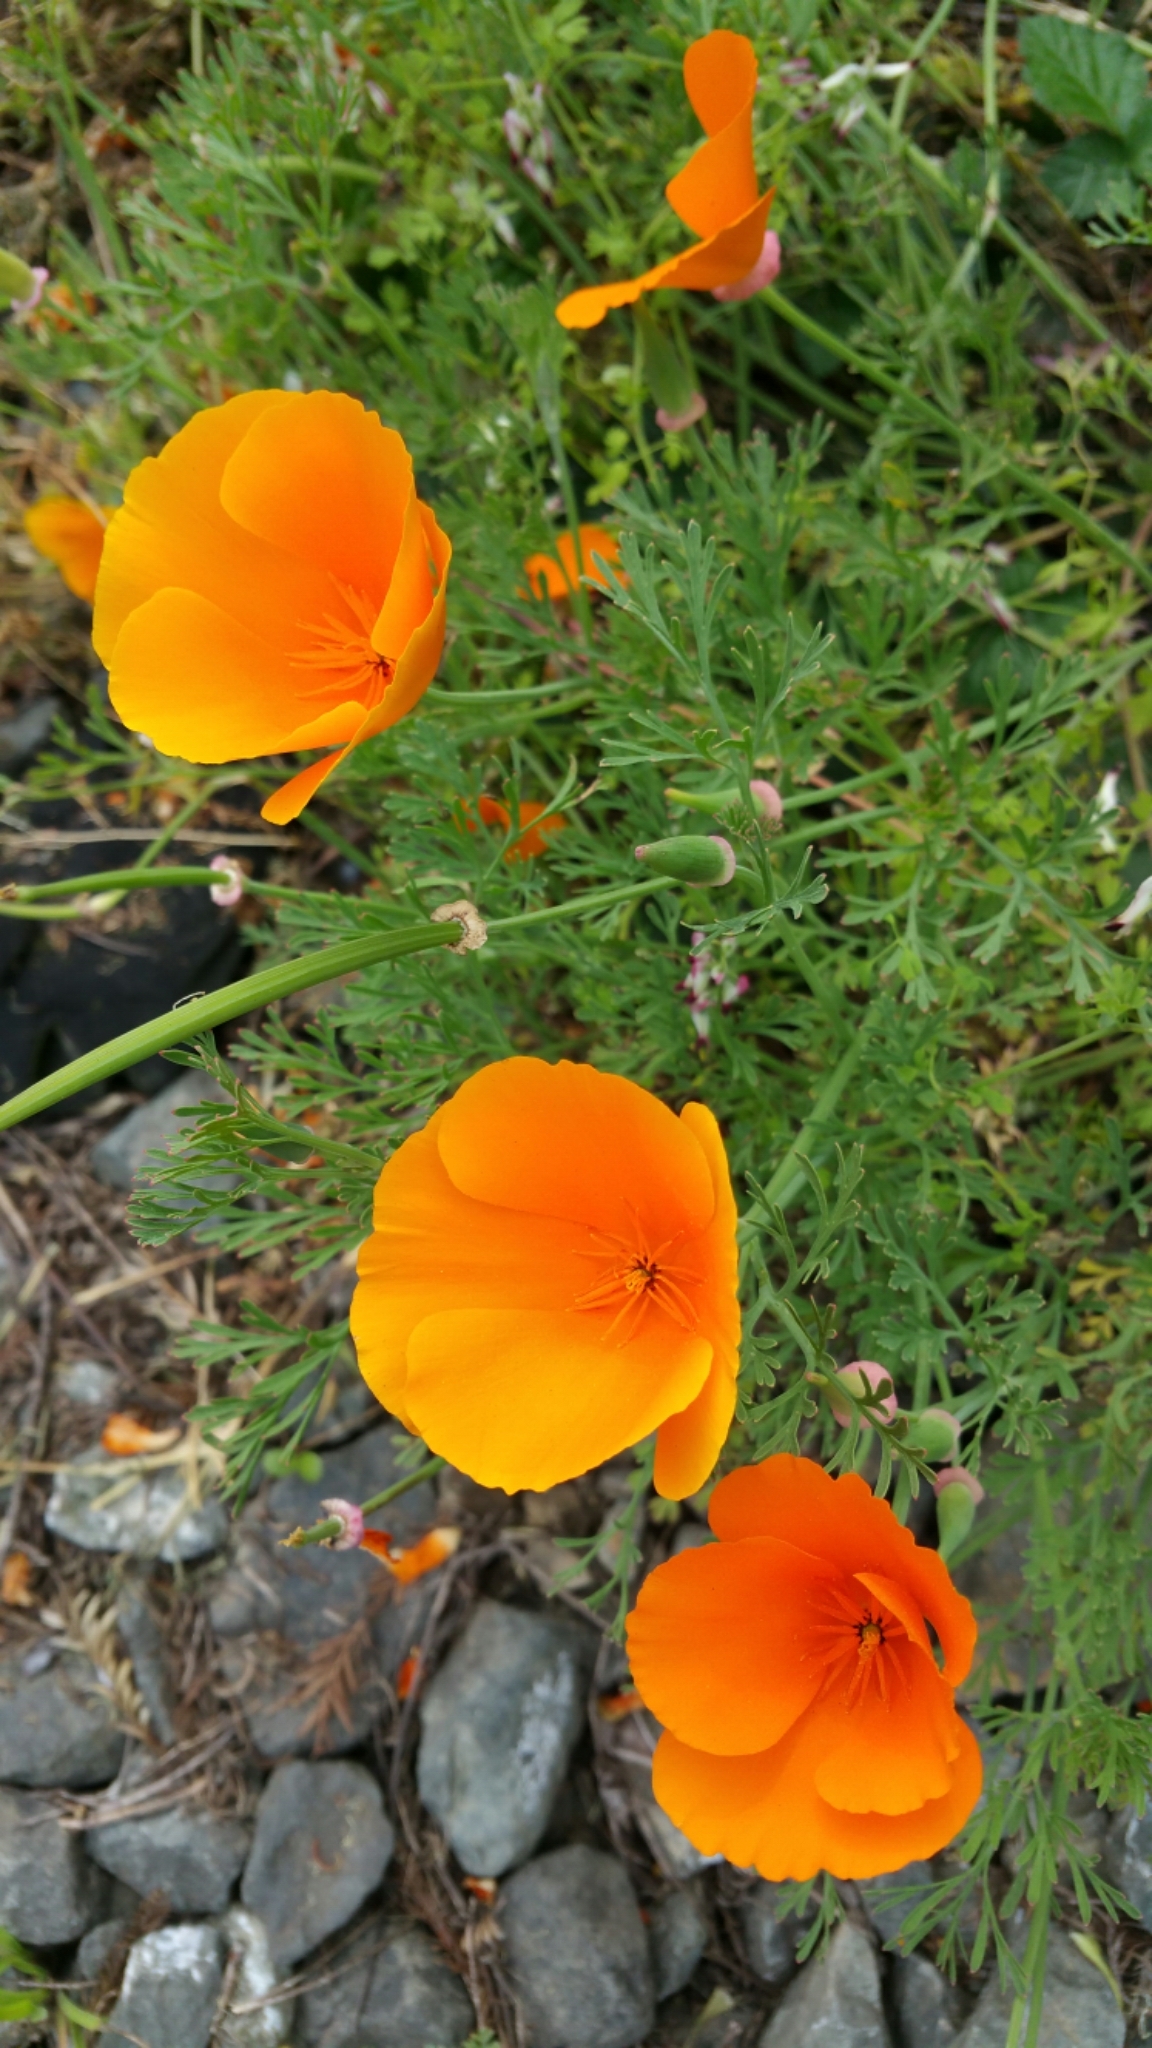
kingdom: Plantae
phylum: Tracheophyta
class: Magnoliopsida
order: Ranunculales
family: Papaveraceae
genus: Eschscholzia
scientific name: Eschscholzia californica
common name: California poppy
